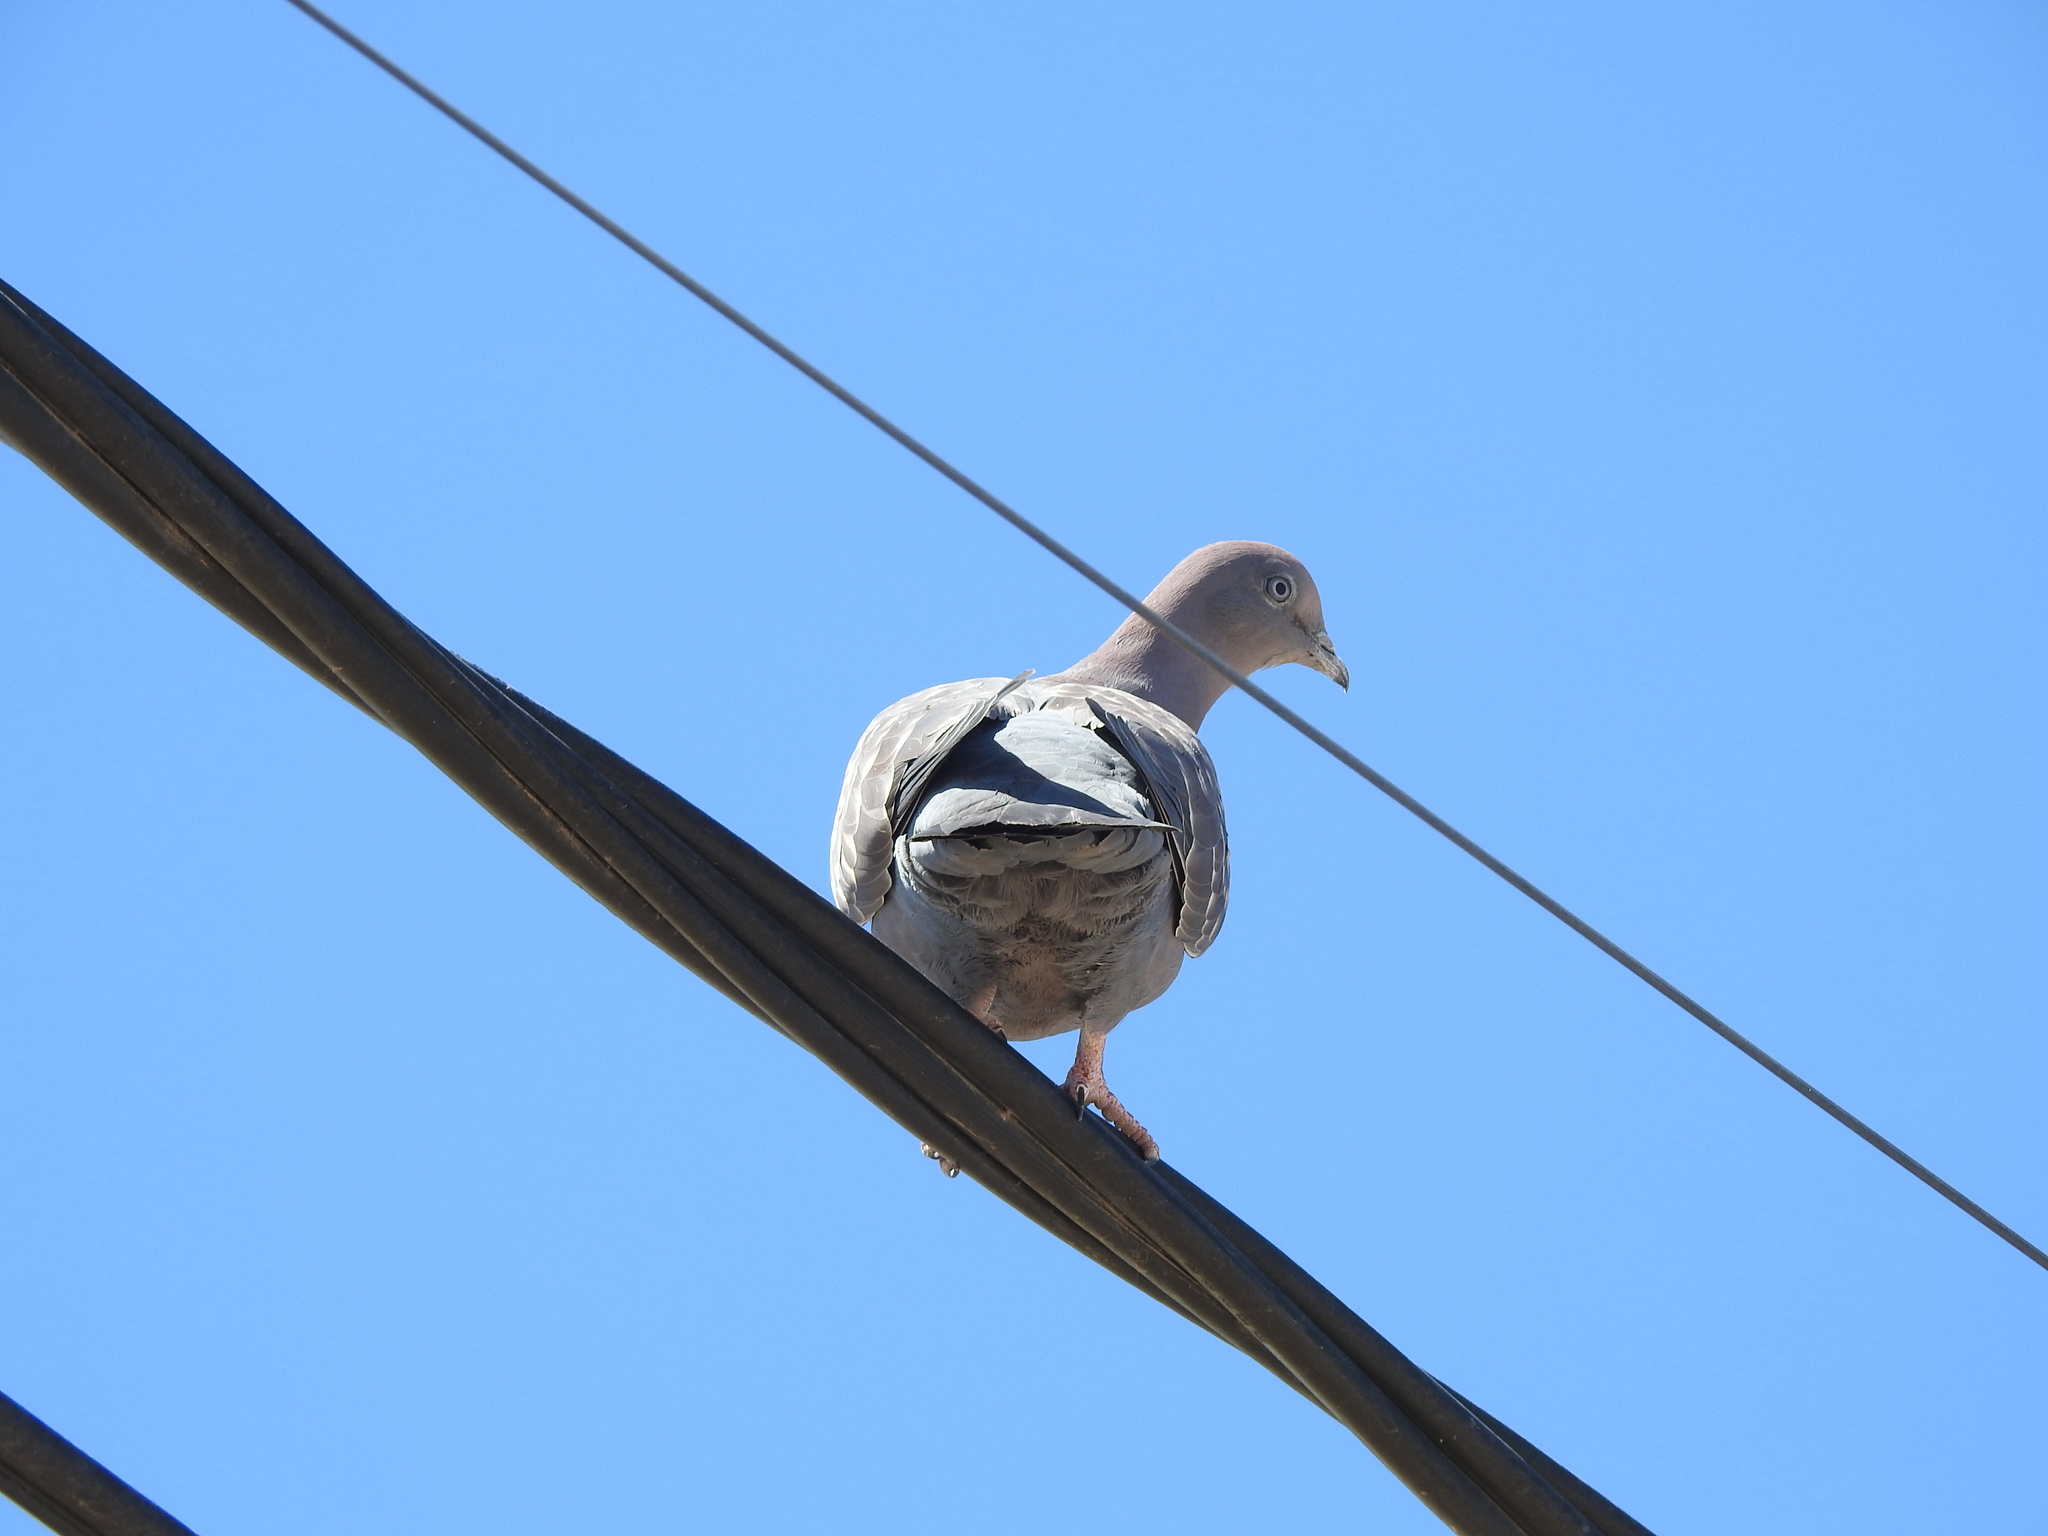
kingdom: Animalia
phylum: Chordata
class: Aves
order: Columbiformes
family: Columbidae
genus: Patagioenas
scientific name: Patagioenas maculosa
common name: Spot-winged pigeon
